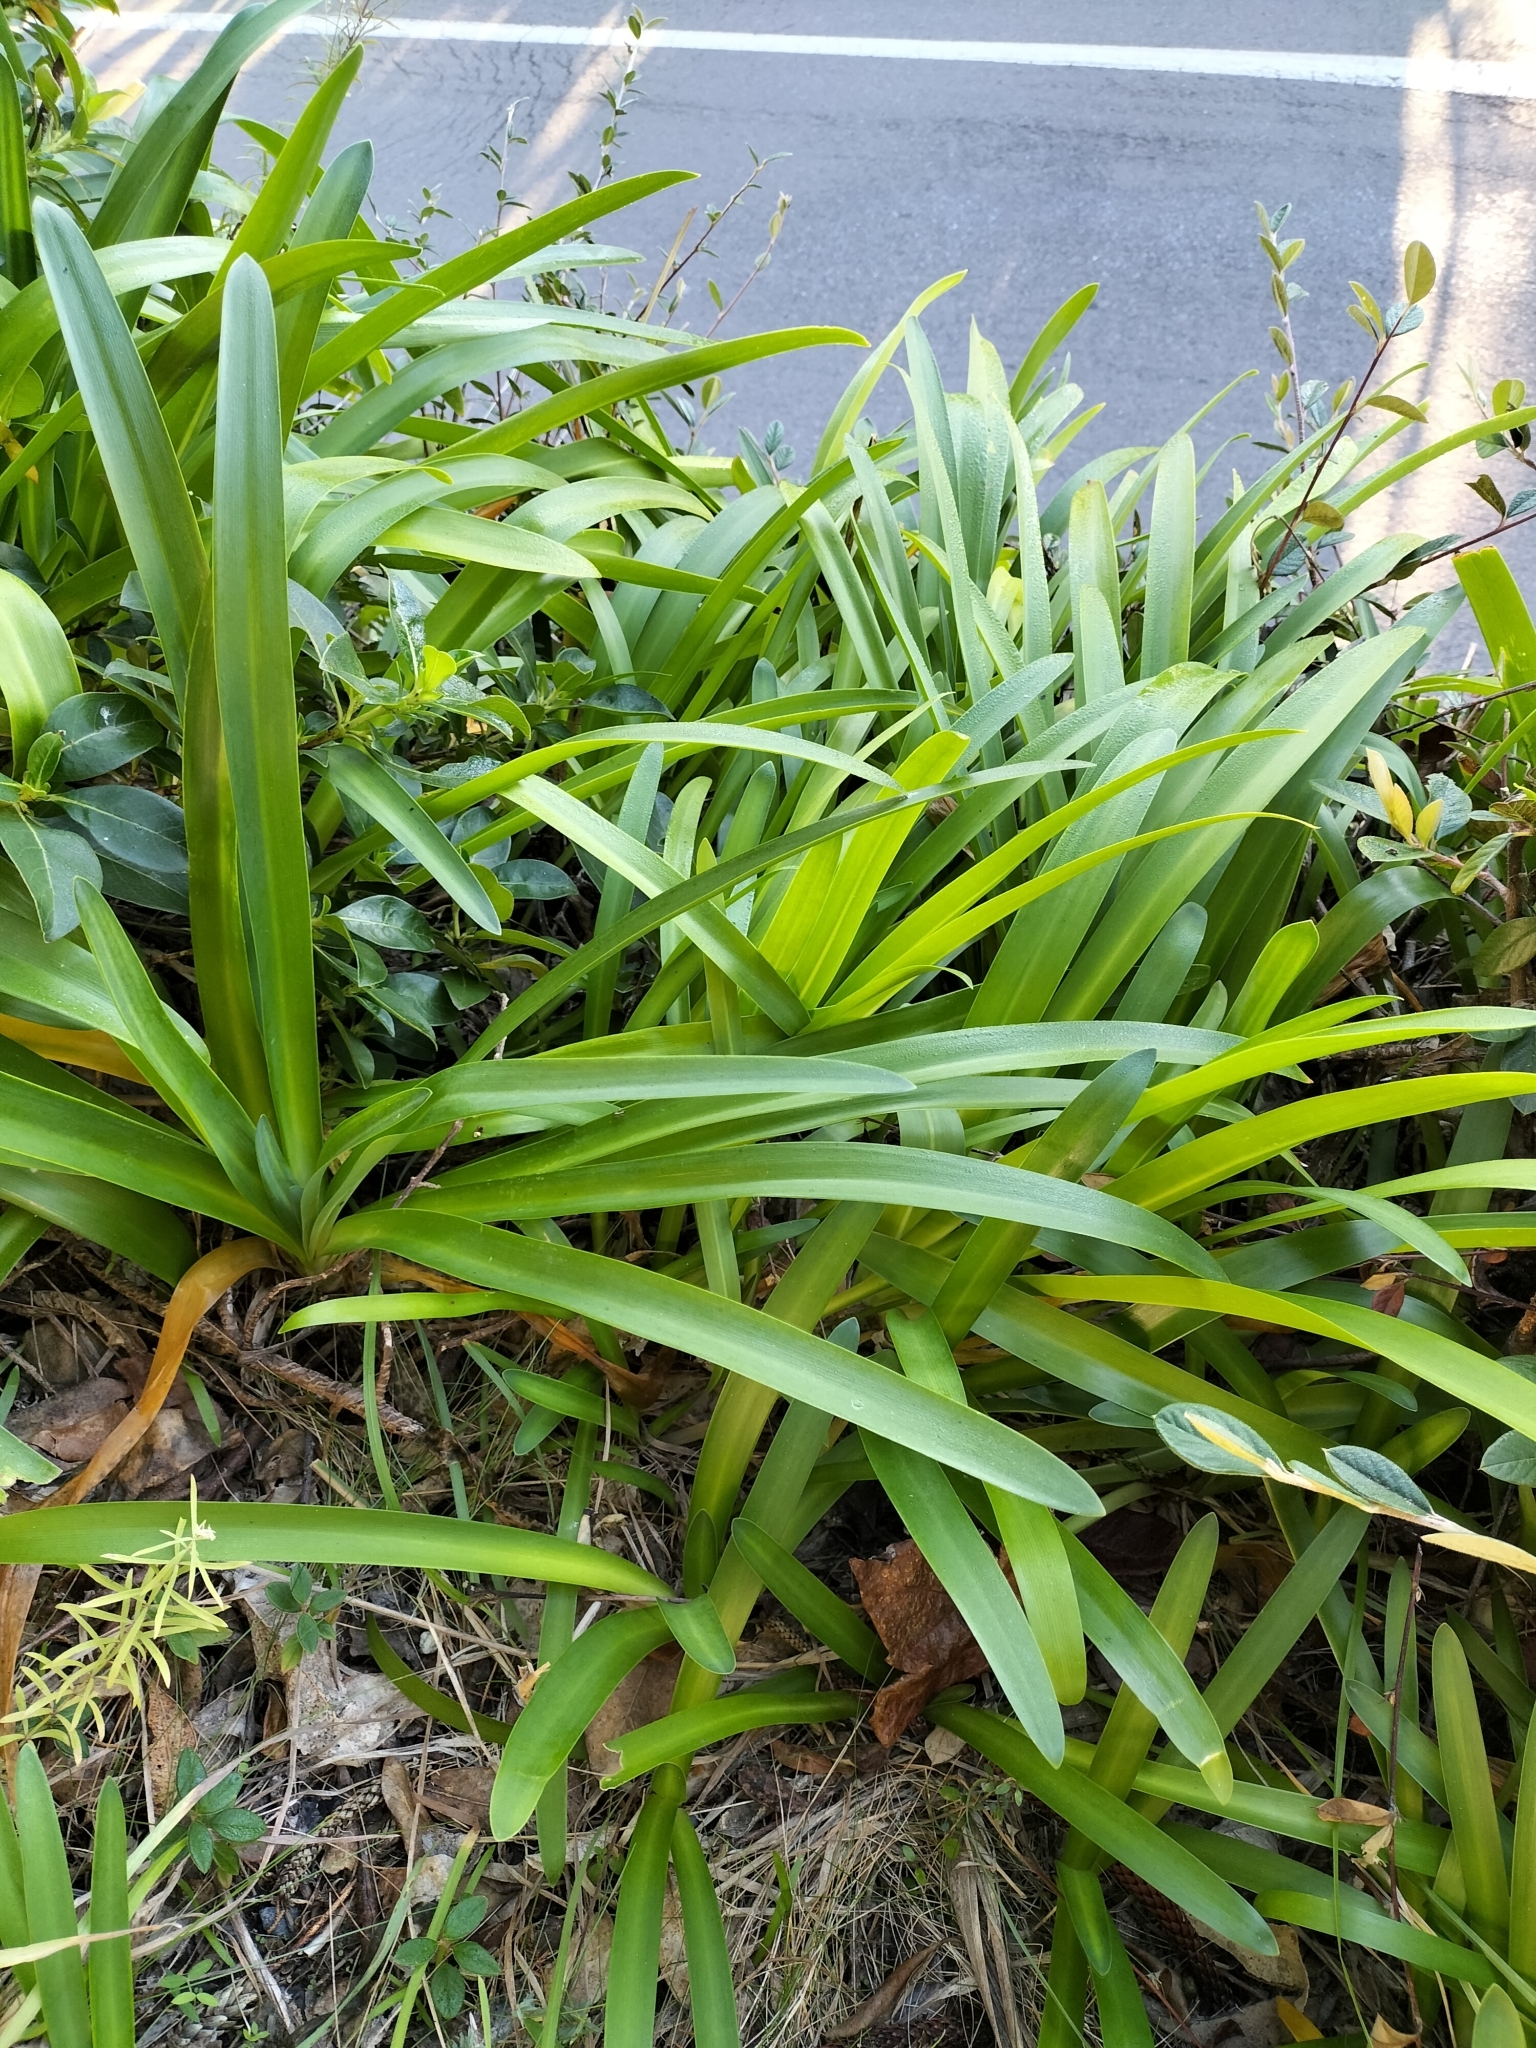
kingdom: Plantae
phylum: Tracheophyta
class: Liliopsida
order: Asparagales
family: Amaryllidaceae
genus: Agapanthus
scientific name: Agapanthus praecox
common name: African-lily
